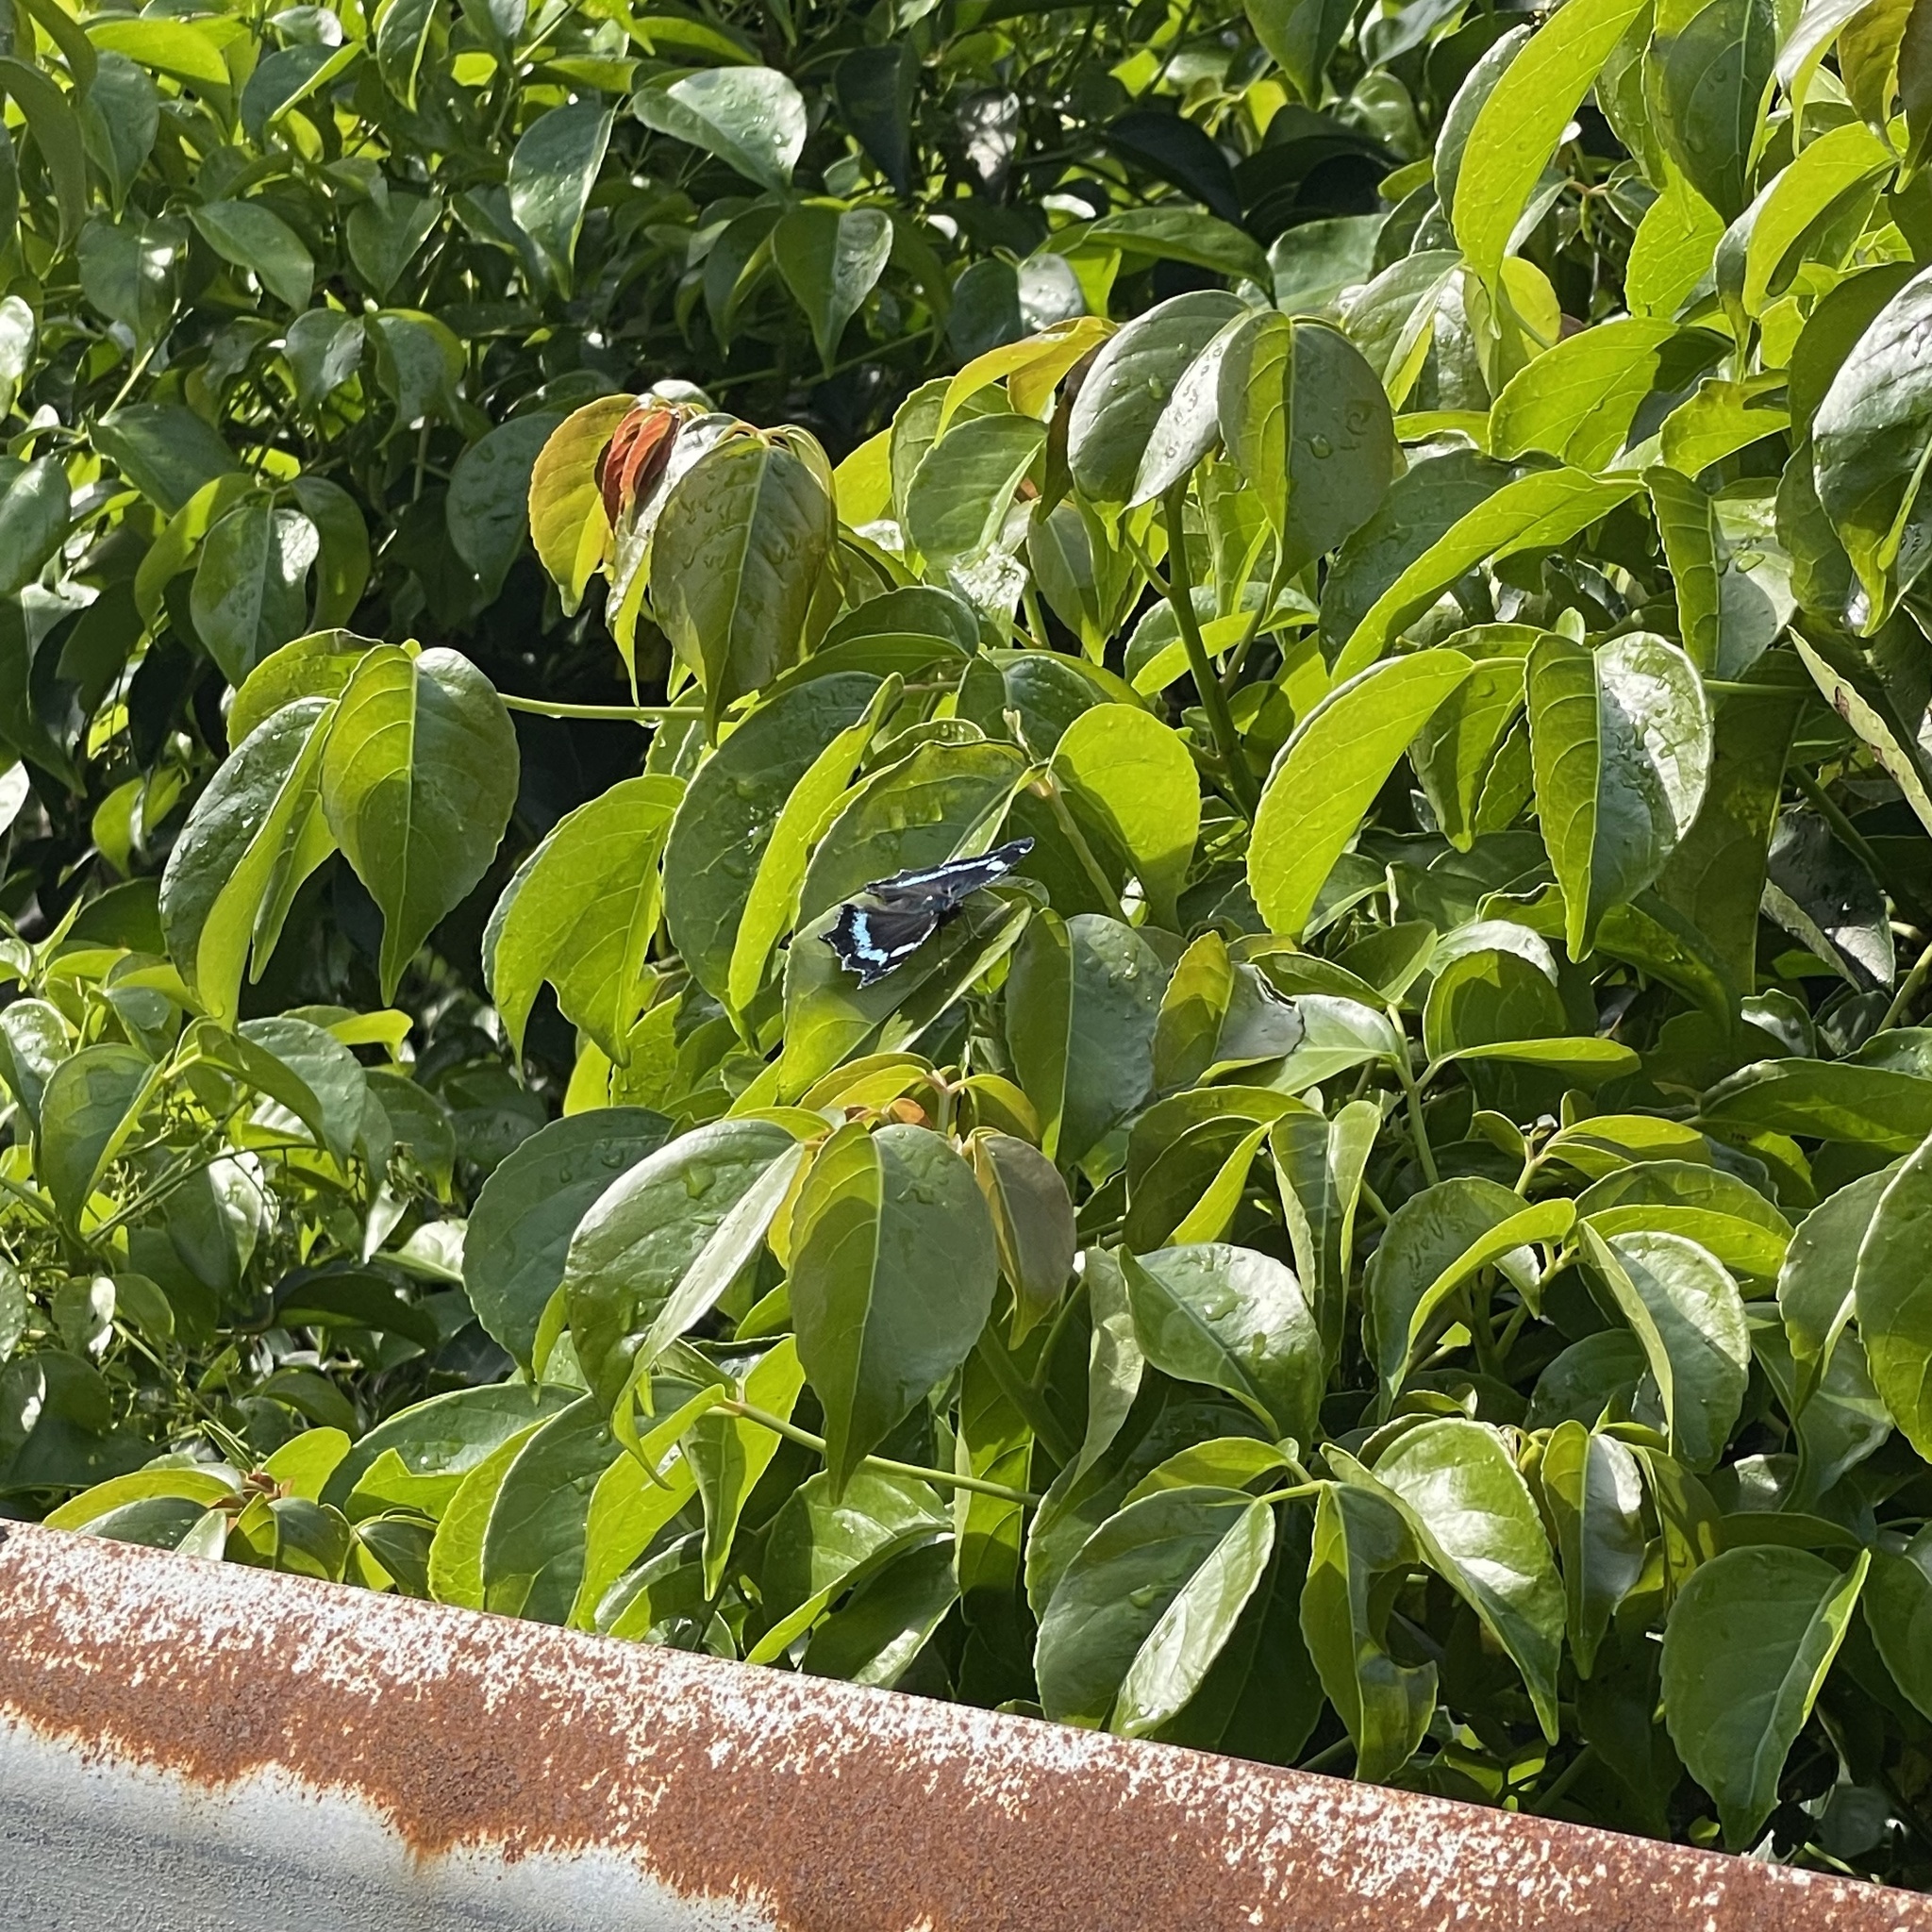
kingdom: Animalia
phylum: Arthropoda
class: Insecta
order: Lepidoptera
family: Nymphalidae
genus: Vanessa
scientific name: Vanessa Kaniska canace
